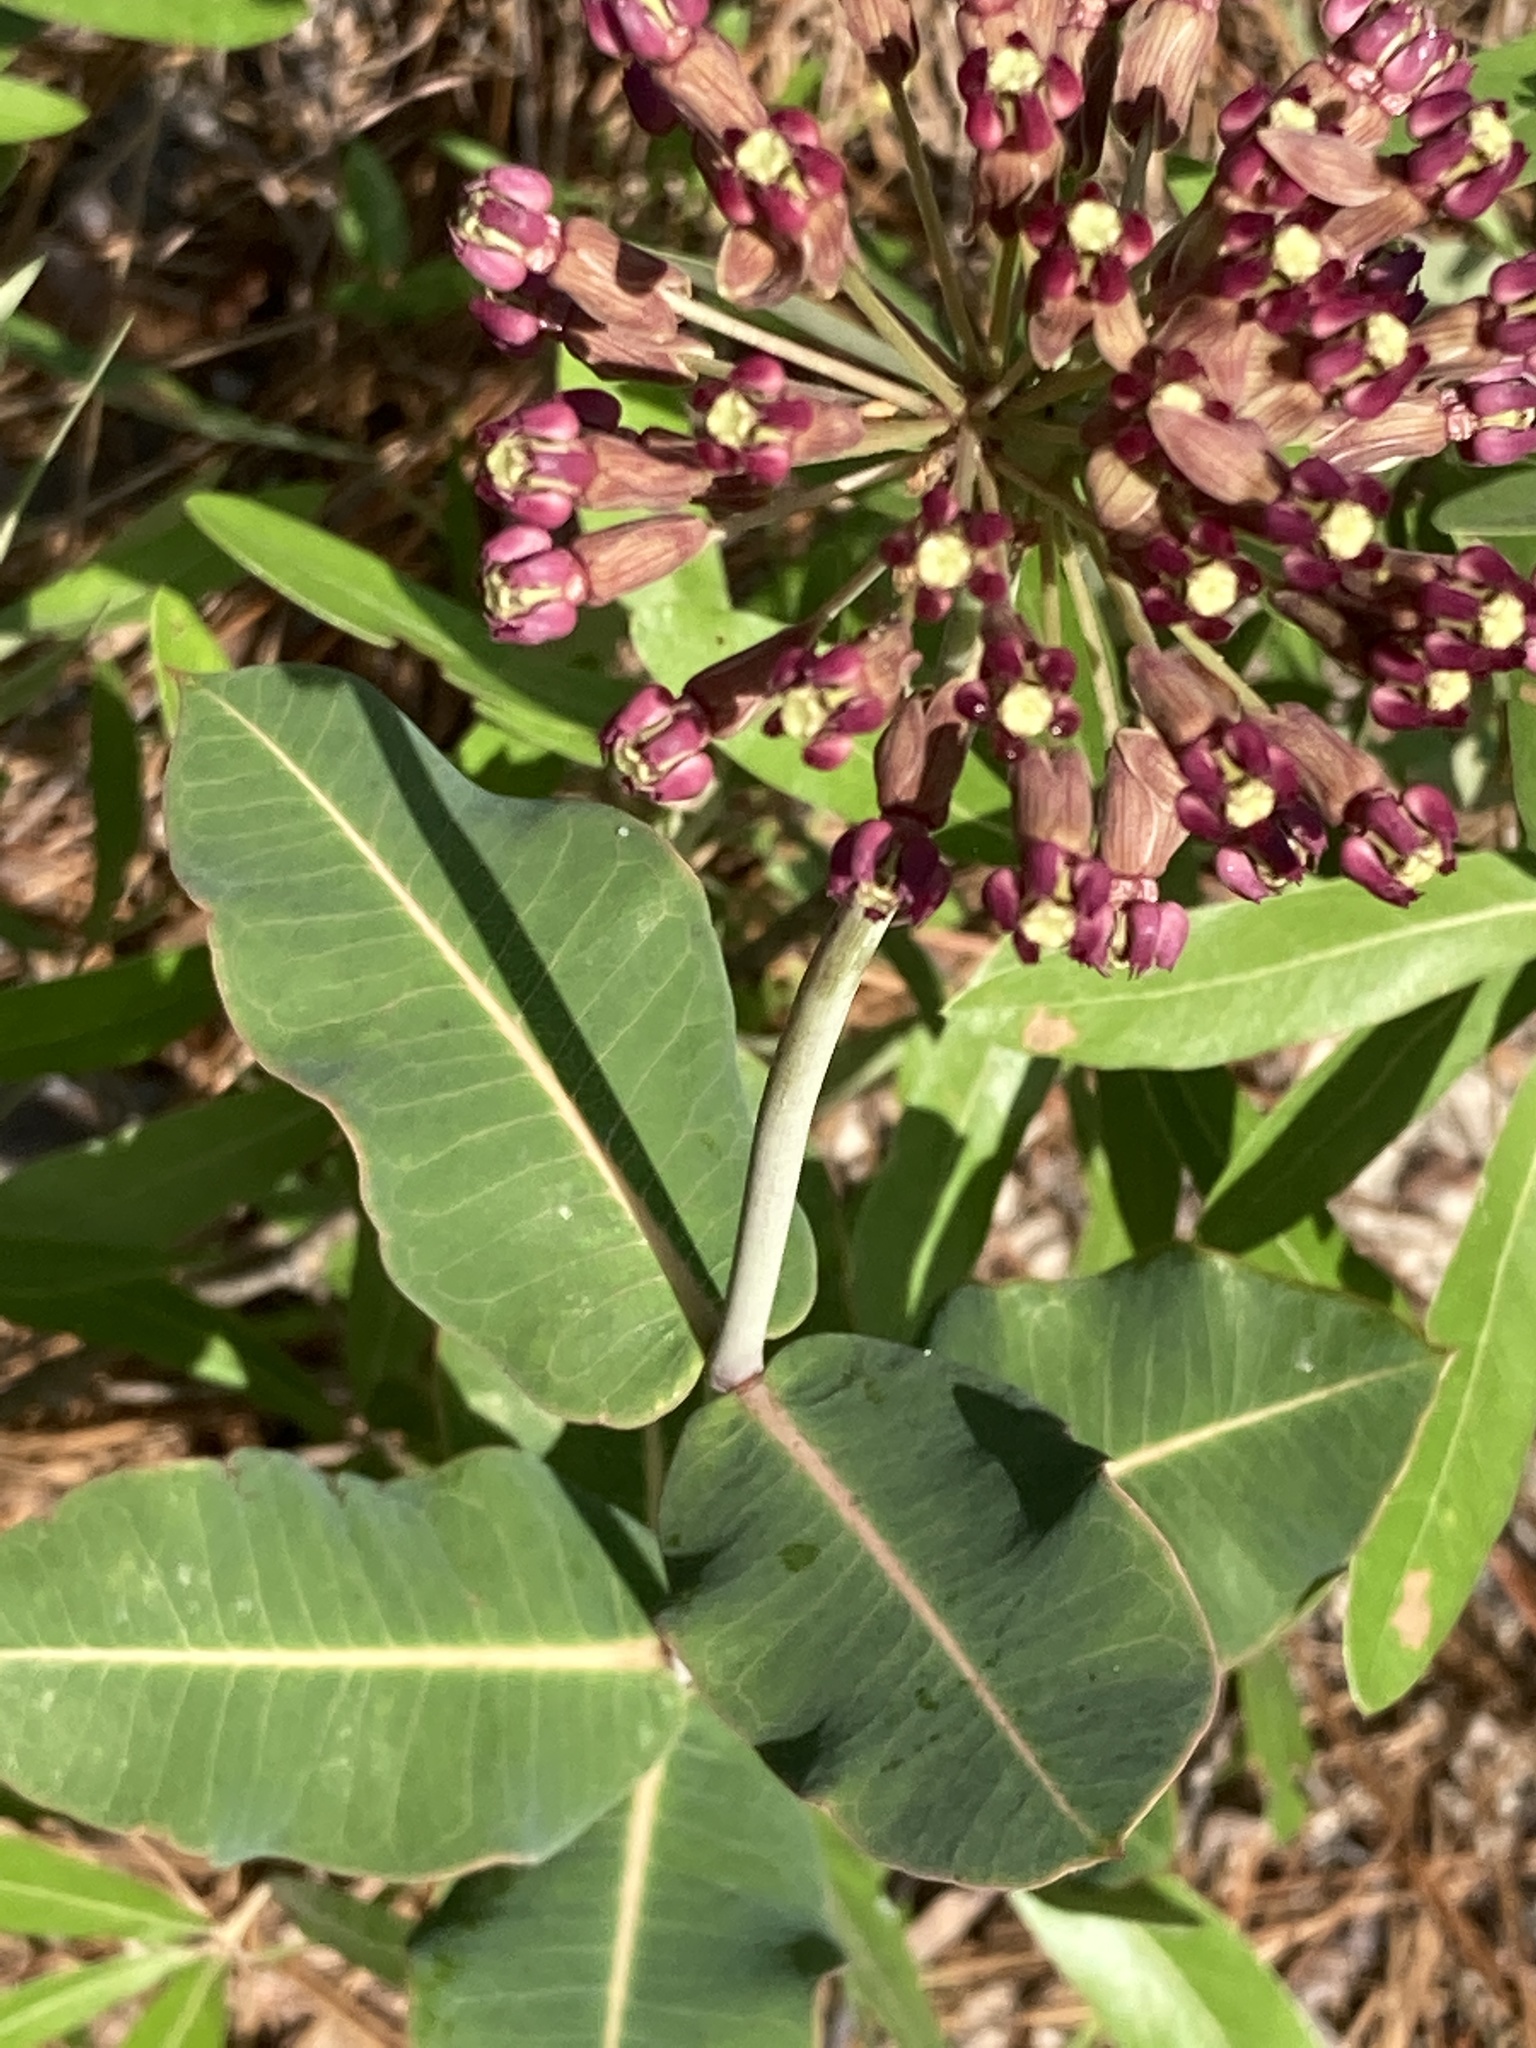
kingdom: Plantae
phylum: Tracheophyta
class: Magnoliopsida
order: Gentianales
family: Apocynaceae
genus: Asclepias
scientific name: Asclepias amplexicaulis
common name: Blunt-leaf milkweed
